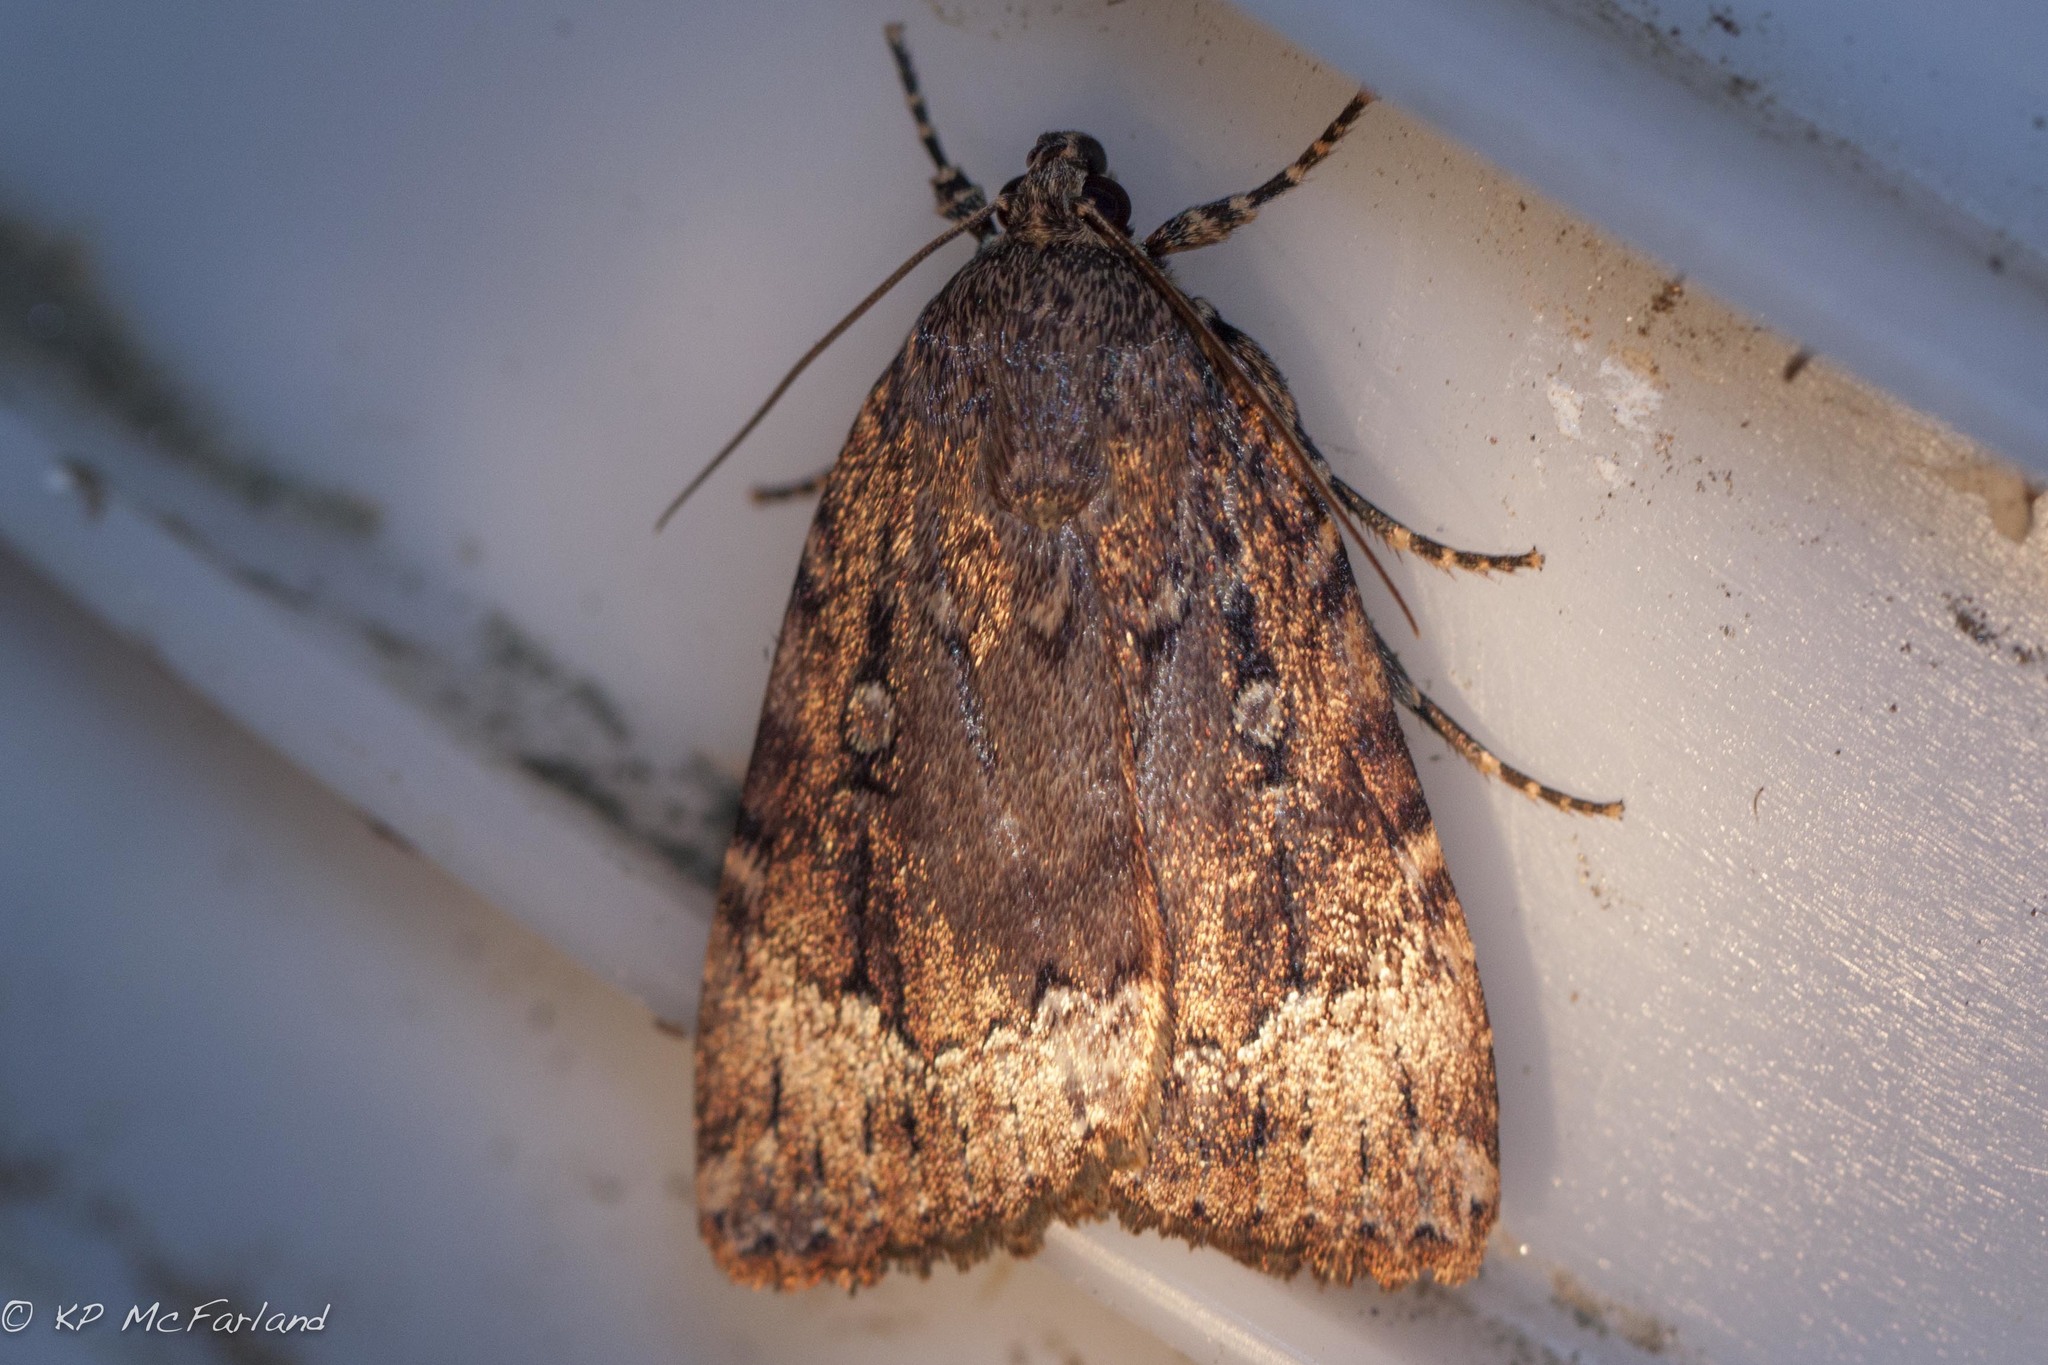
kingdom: Animalia
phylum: Arthropoda
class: Insecta
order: Lepidoptera
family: Noctuidae
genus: Amphipyra
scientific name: Amphipyra pyramidoides
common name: American copper underwing
